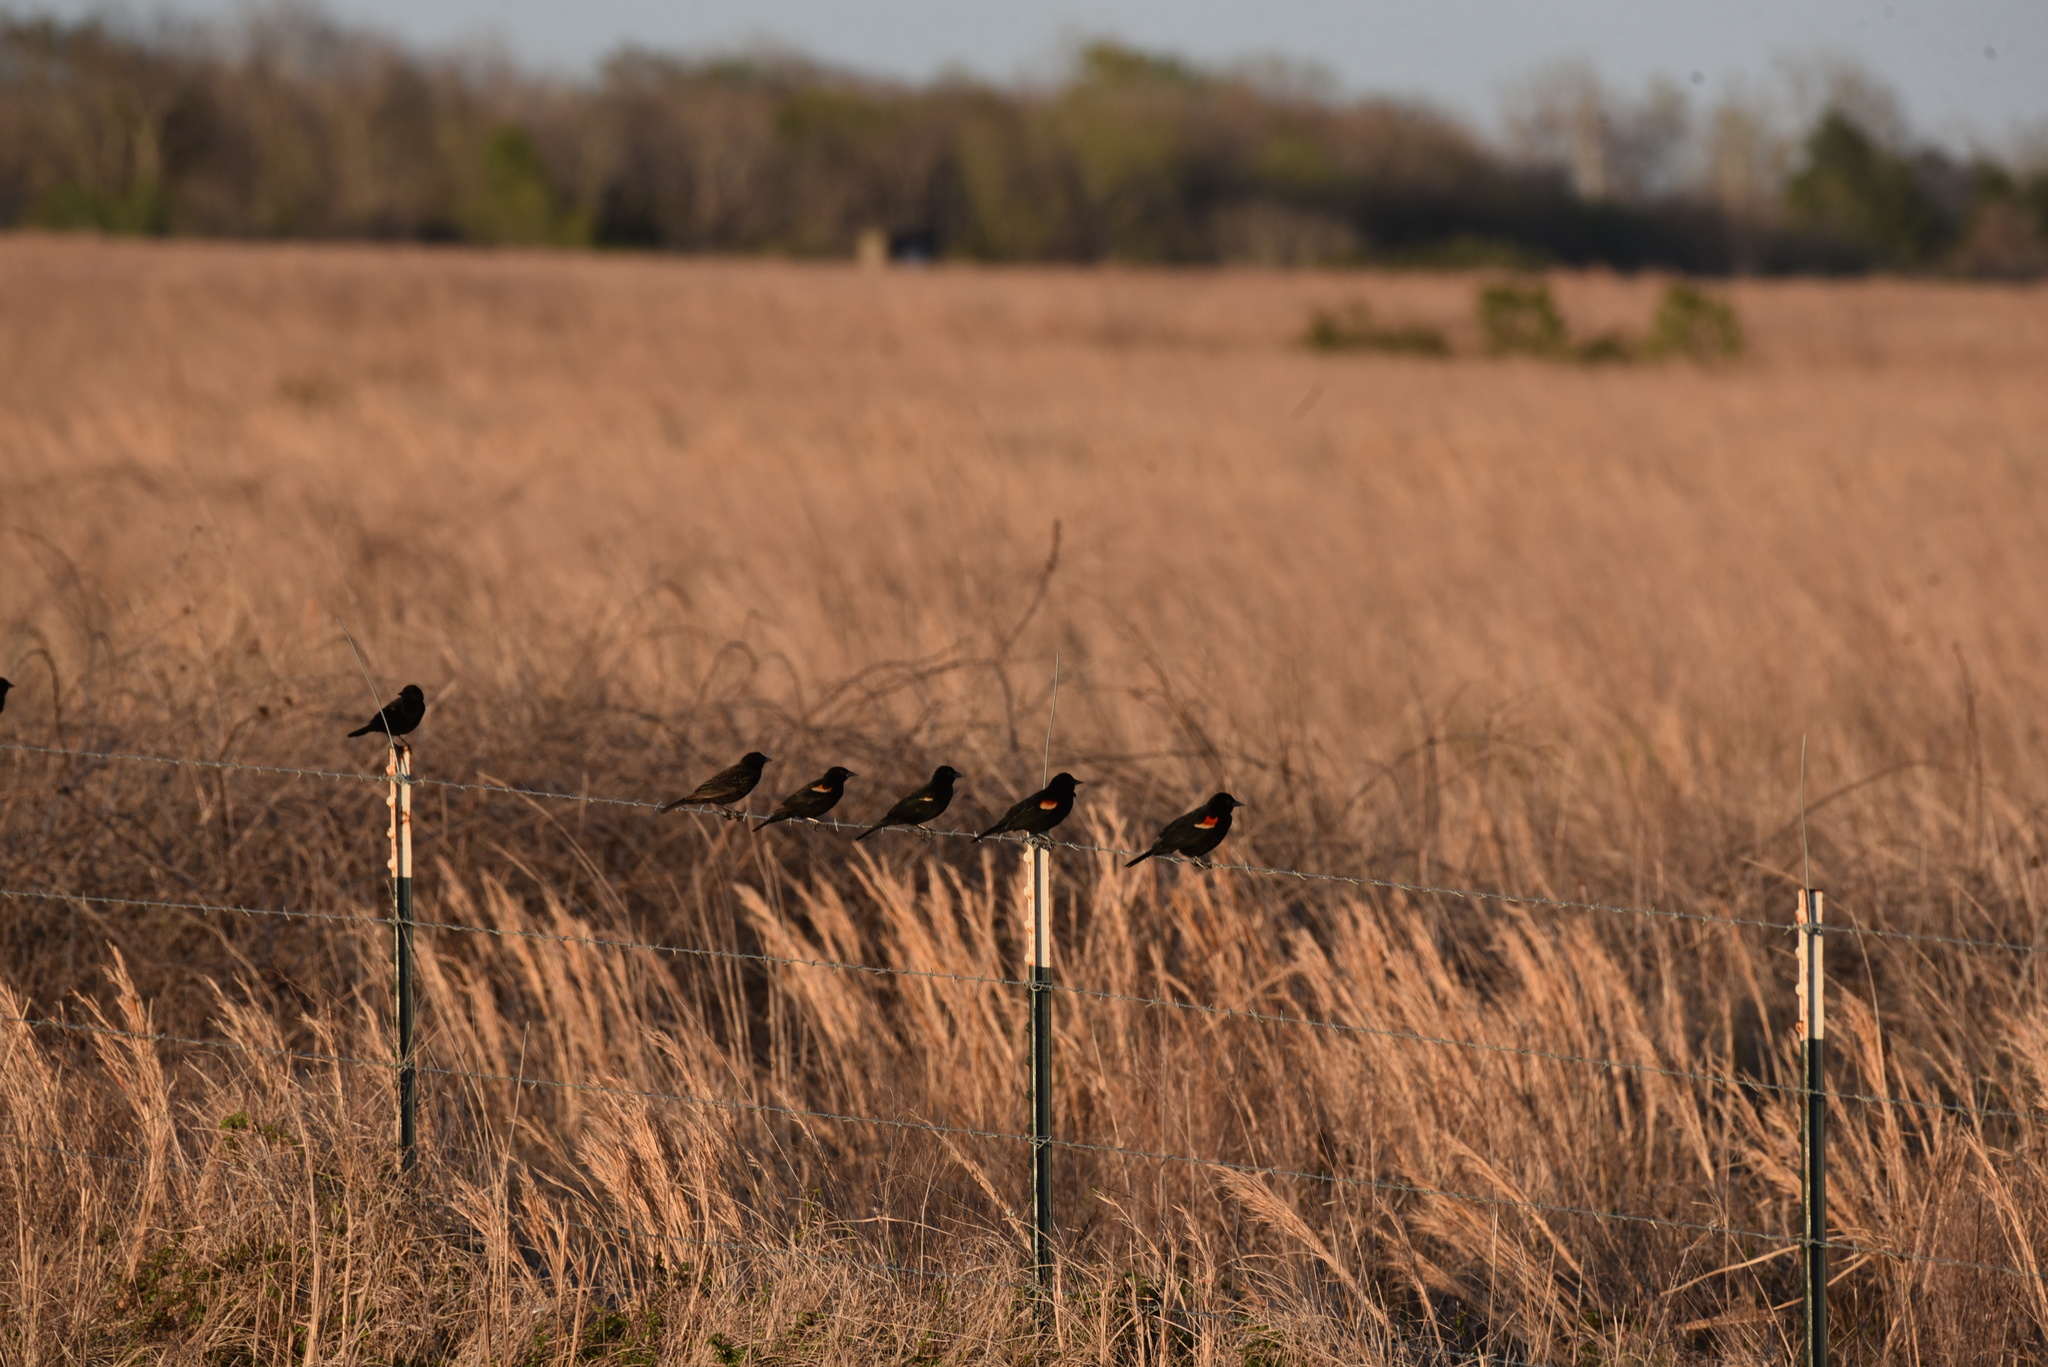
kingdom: Animalia
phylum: Chordata
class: Aves
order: Passeriformes
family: Icteridae
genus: Agelaius
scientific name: Agelaius phoeniceus
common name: Red-winged blackbird
